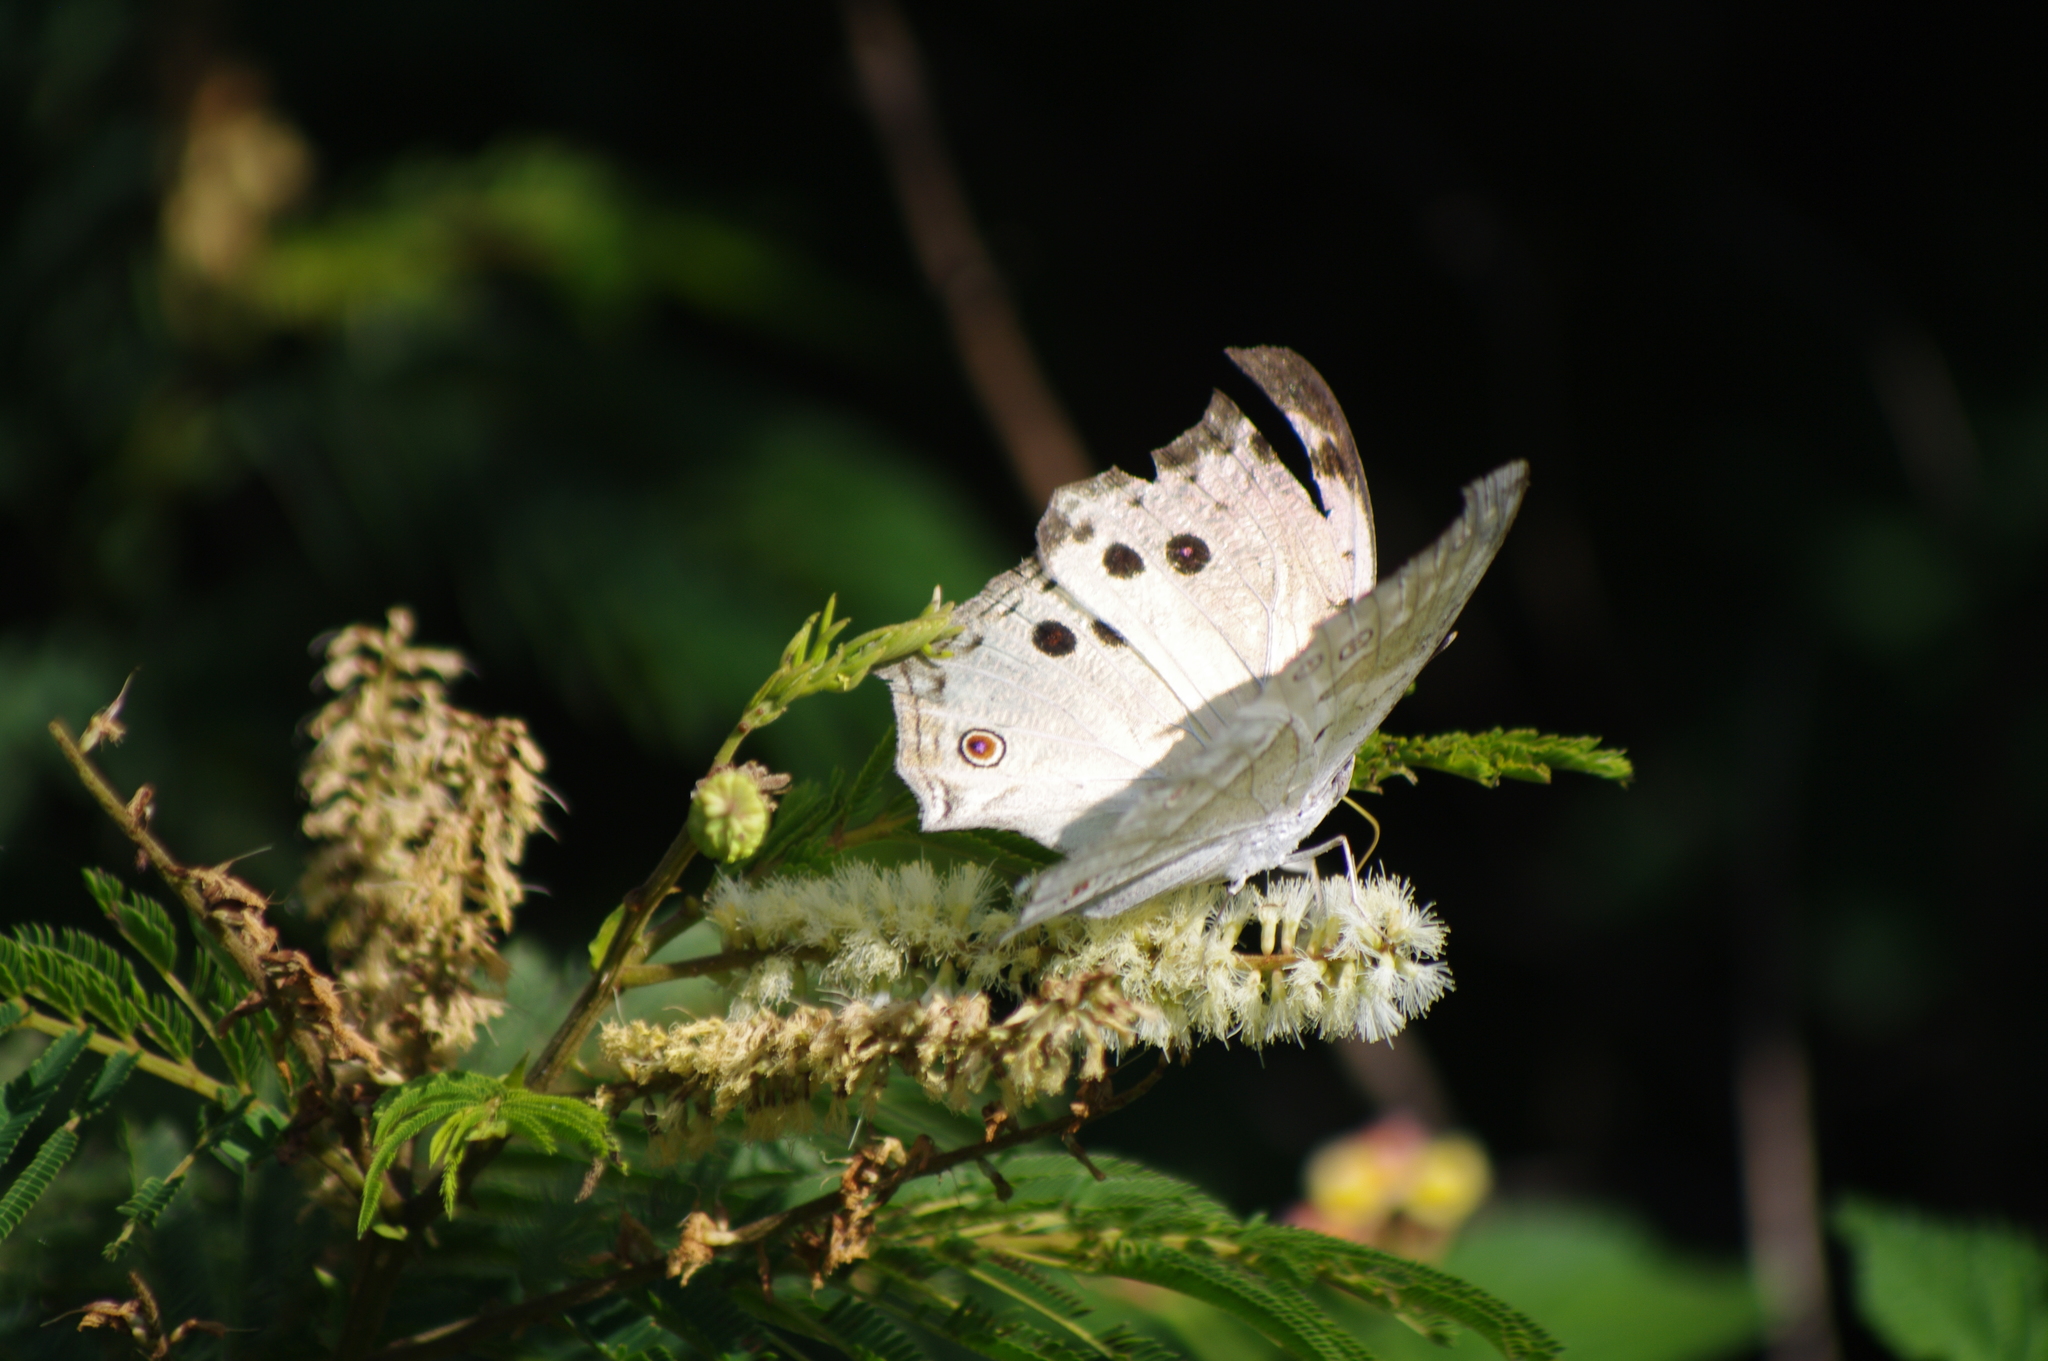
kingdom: Animalia
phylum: Arthropoda
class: Insecta
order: Lepidoptera
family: Nymphalidae
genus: Salamis
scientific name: Salamis Protogoniomorpha parhassus
